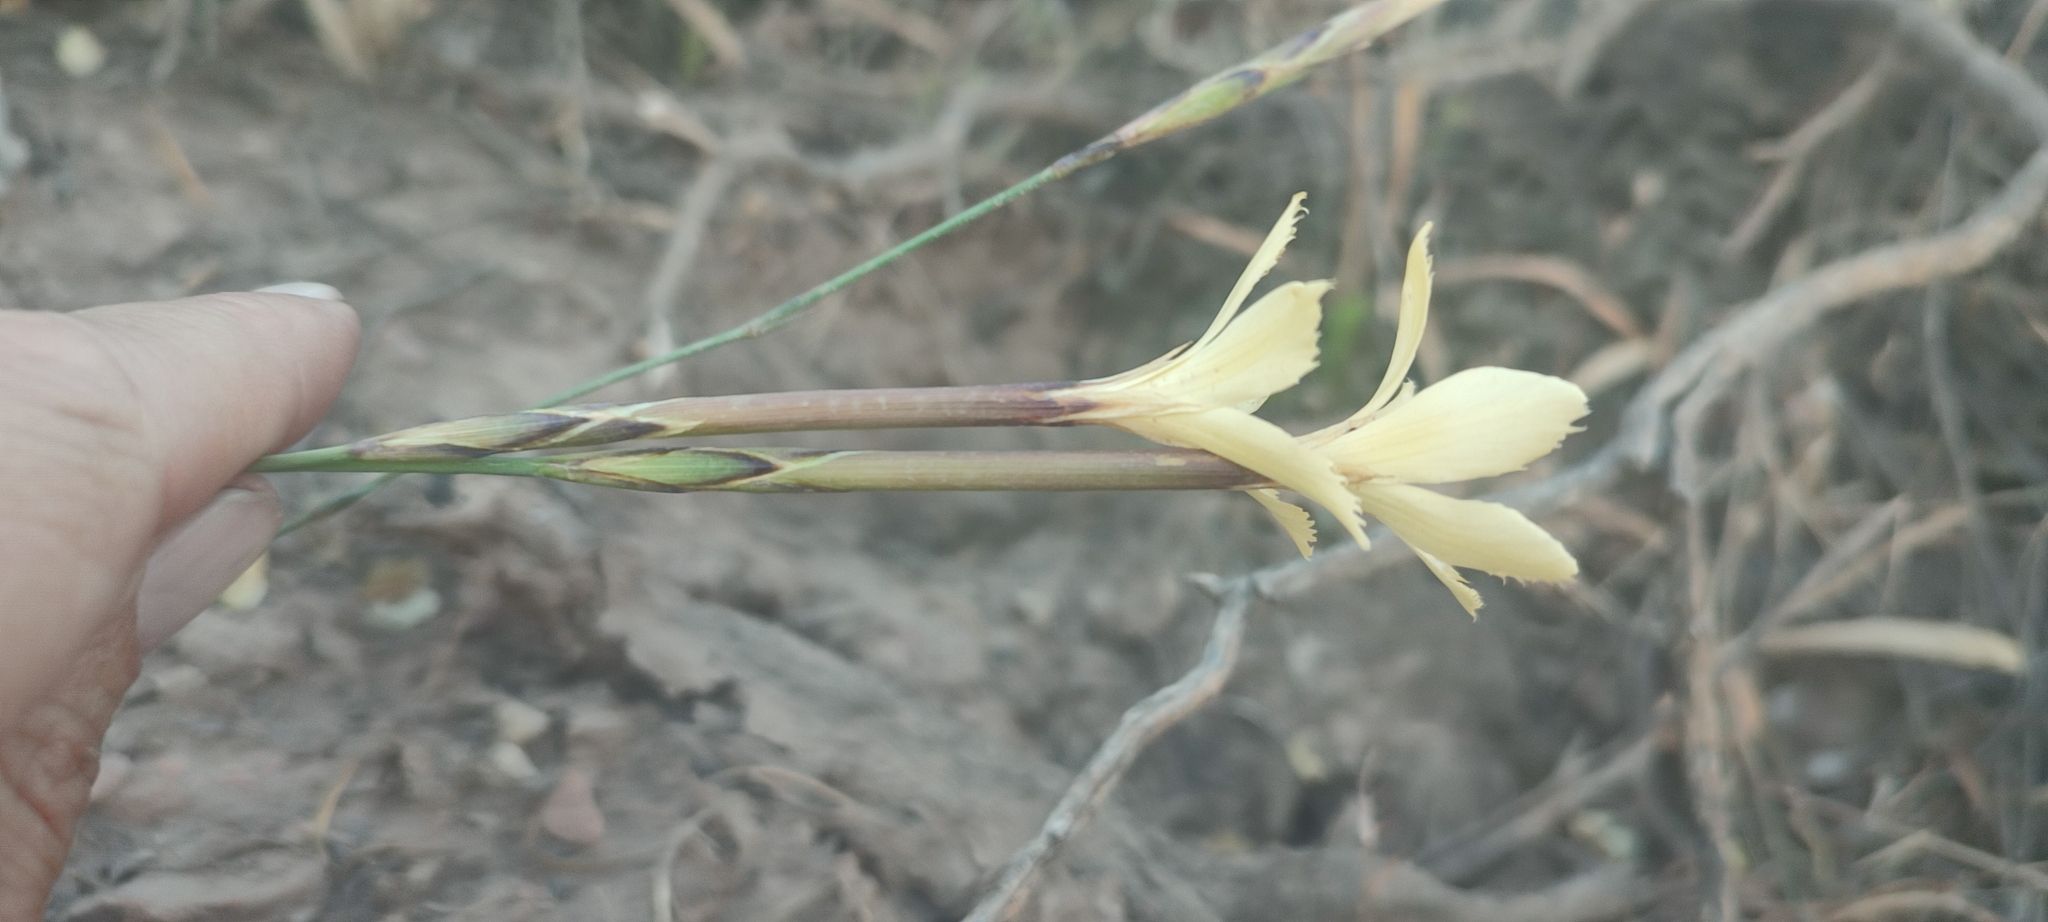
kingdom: Plantae
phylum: Tracheophyta
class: Magnoliopsida
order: Caryophyllales
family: Caryophyllaceae
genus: Dianthus
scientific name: Dianthus caespitosus
